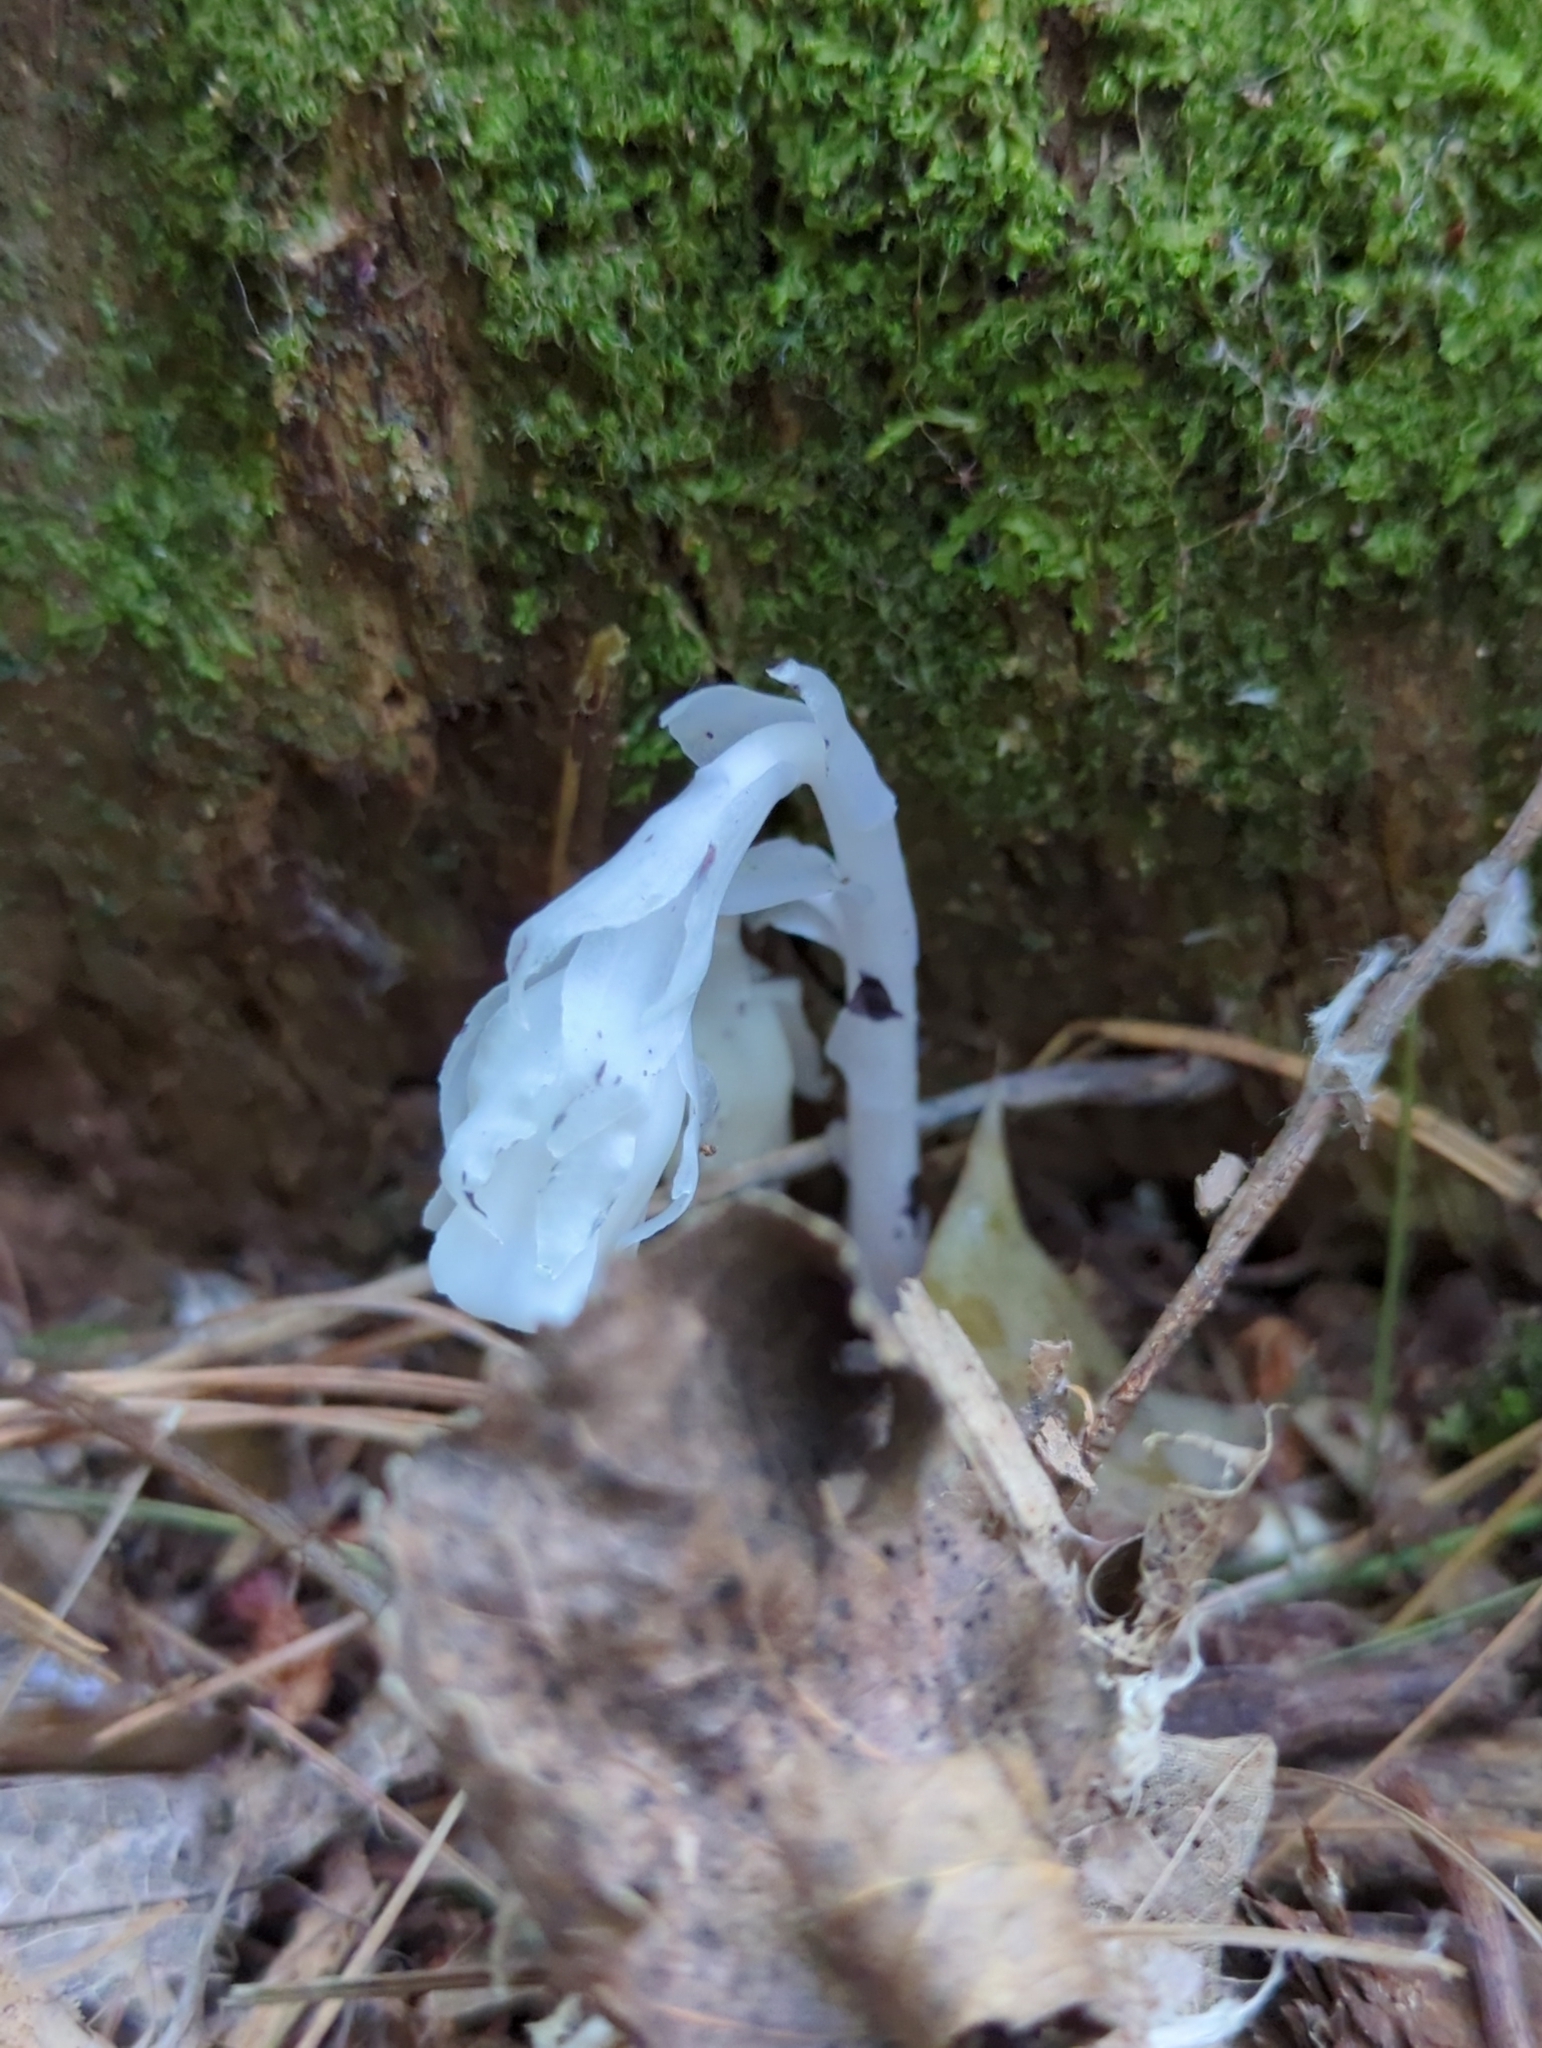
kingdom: Plantae
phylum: Tracheophyta
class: Magnoliopsida
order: Ericales
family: Ericaceae
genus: Monotropa
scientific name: Monotropa uniflora
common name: Convulsion root
